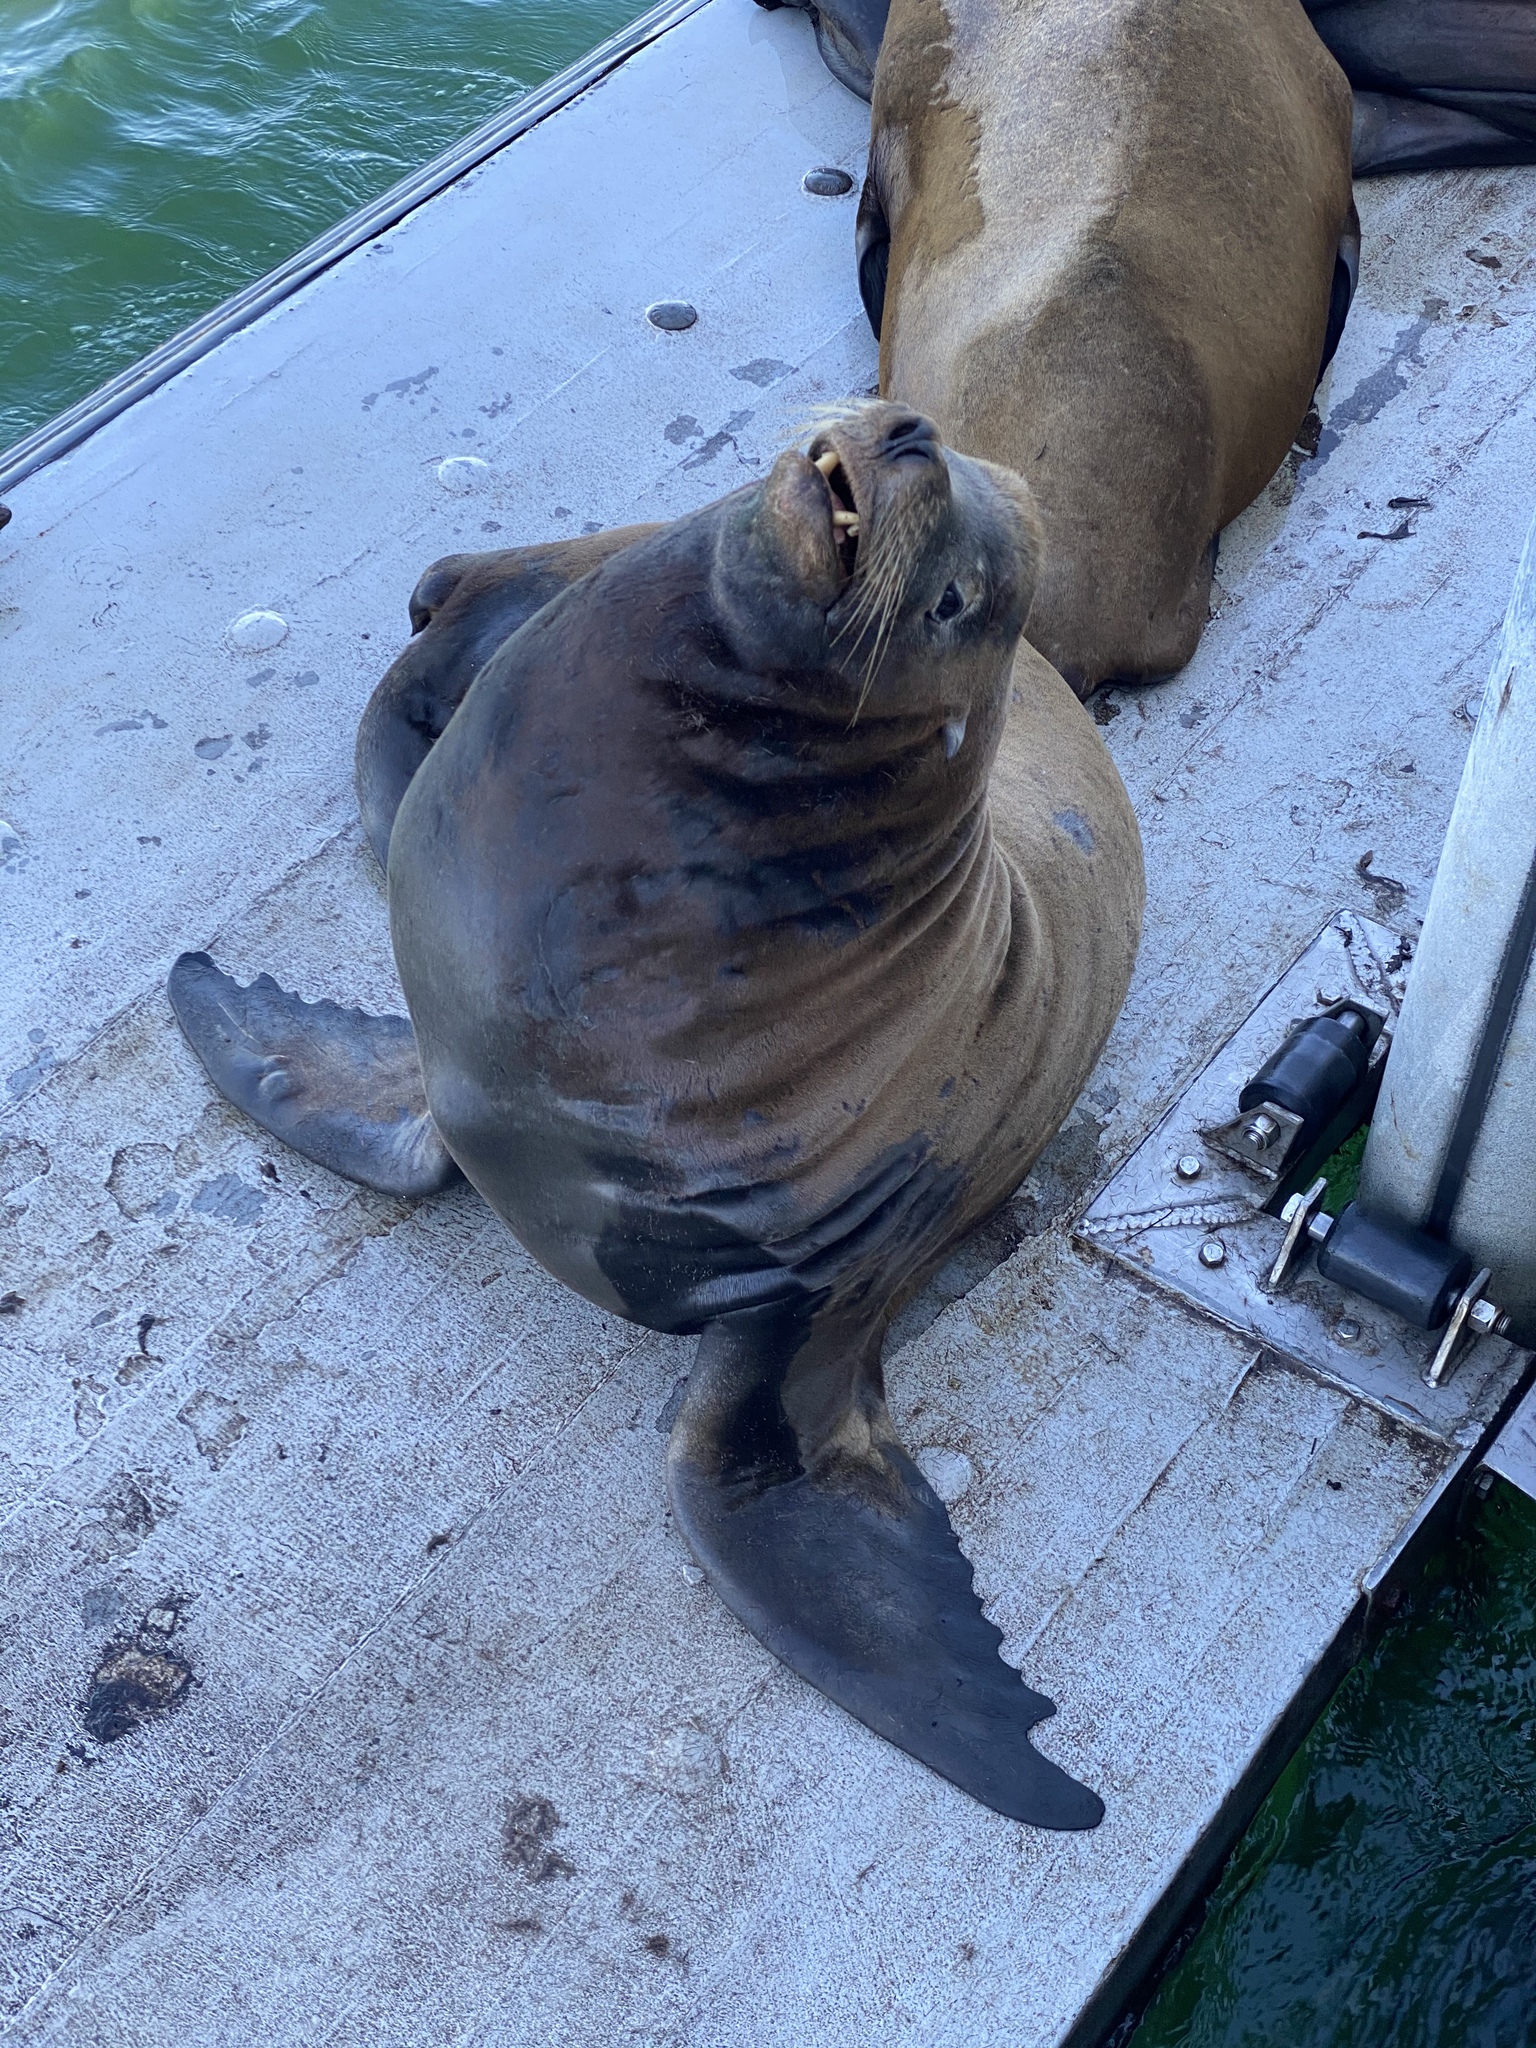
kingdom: Animalia
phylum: Chordata
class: Mammalia
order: Carnivora
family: Otariidae
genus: Zalophus
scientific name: Zalophus californianus
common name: California sea lion
